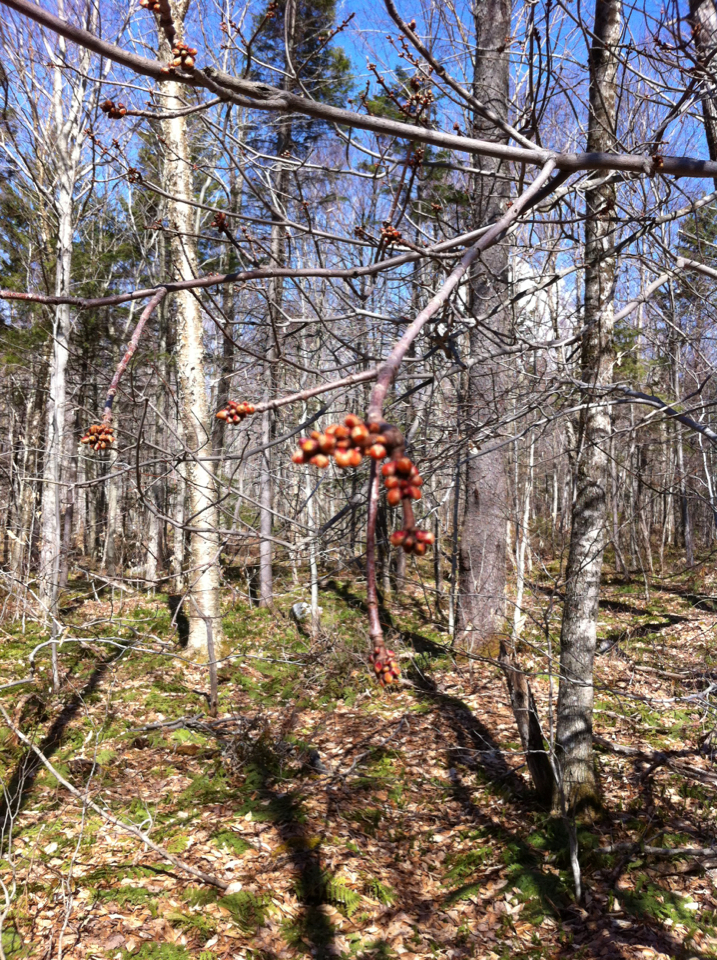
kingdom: Plantae
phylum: Tracheophyta
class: Magnoliopsida
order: Sapindales
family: Sapindaceae
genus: Acer
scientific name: Acer rubrum
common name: Red maple
